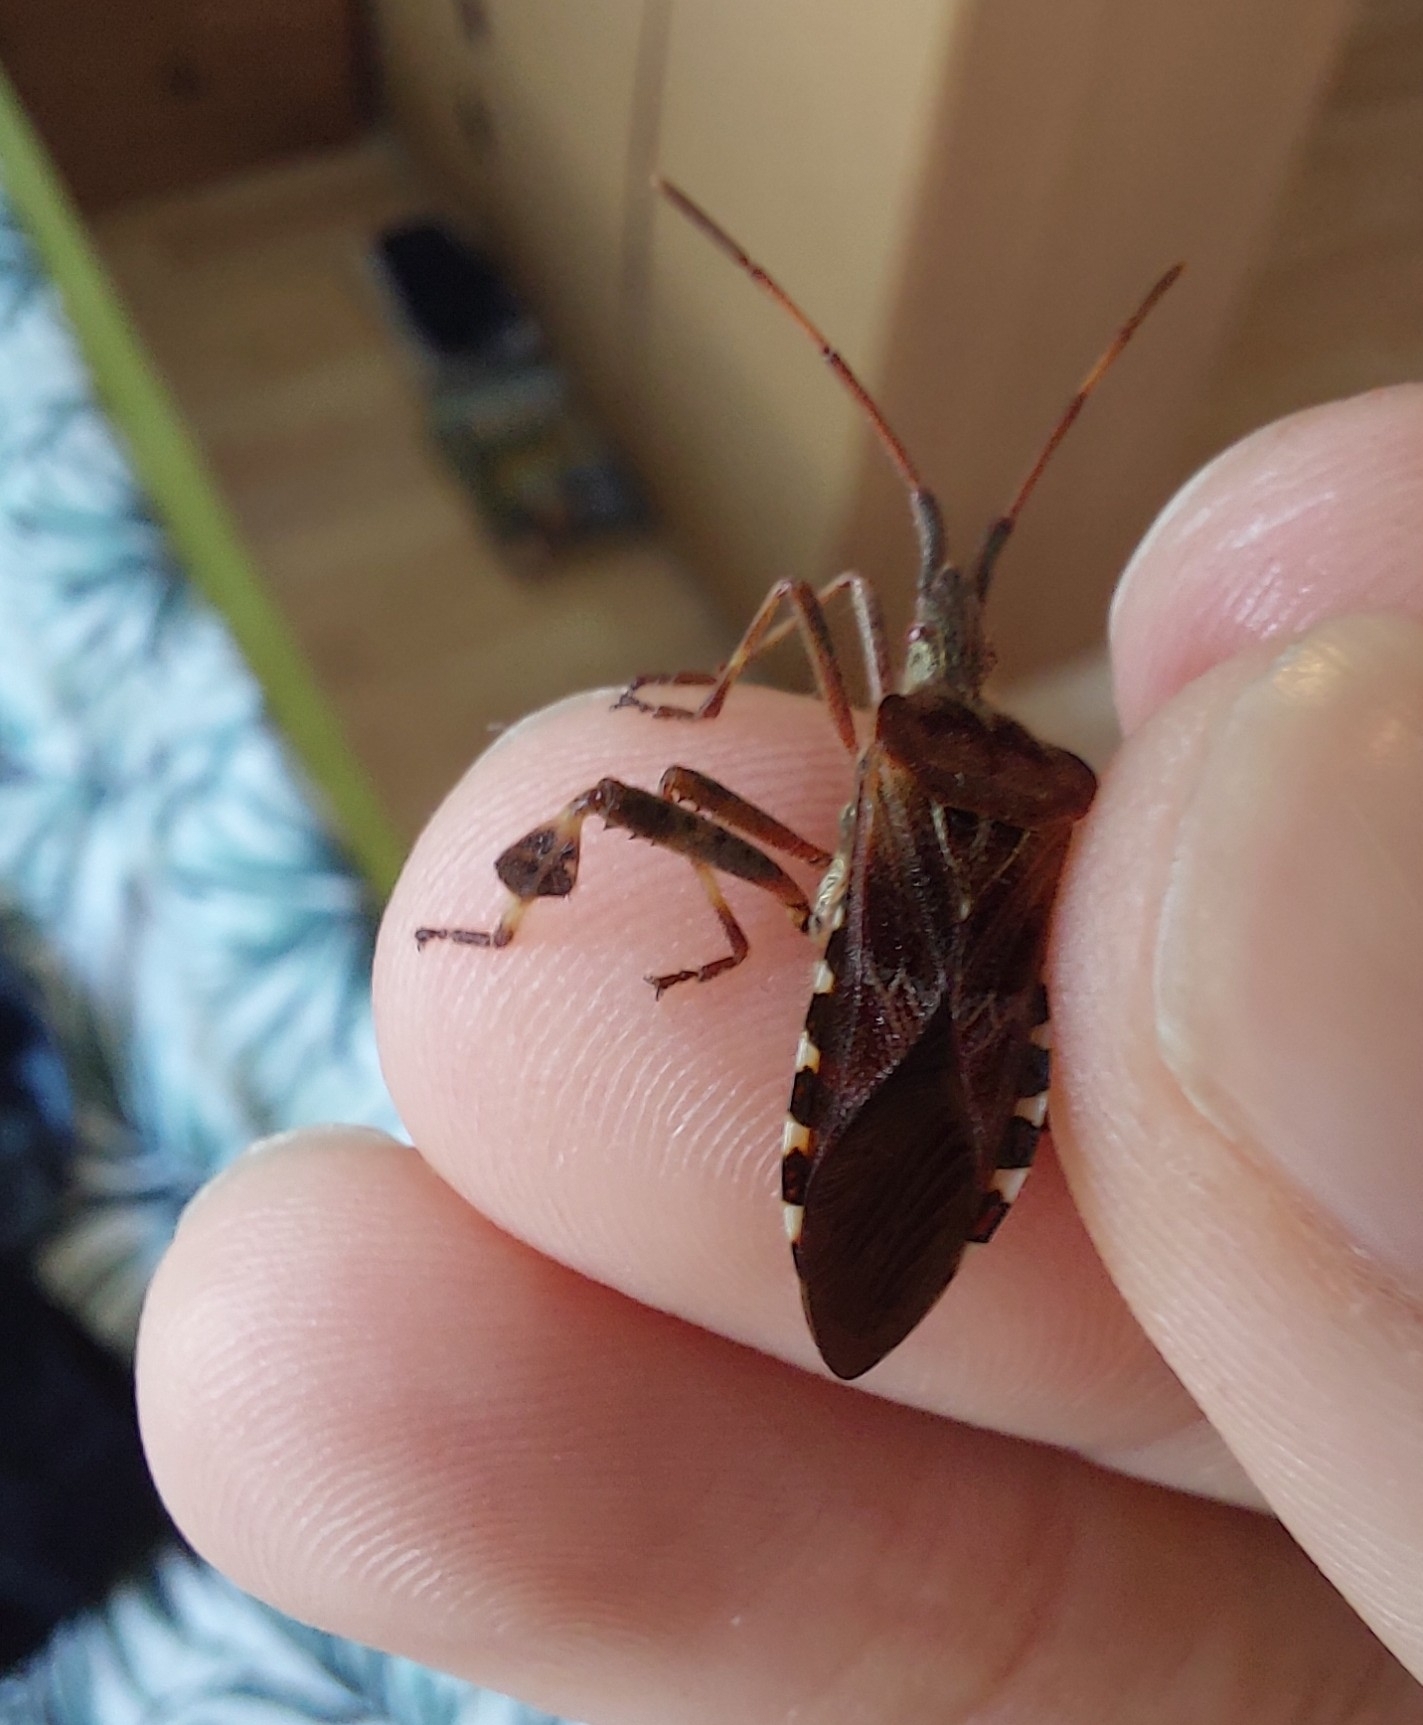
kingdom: Animalia
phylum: Arthropoda
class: Insecta
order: Hemiptera
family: Coreidae
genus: Leptoglossus
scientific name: Leptoglossus occidentalis
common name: Western conifer-seed bug
